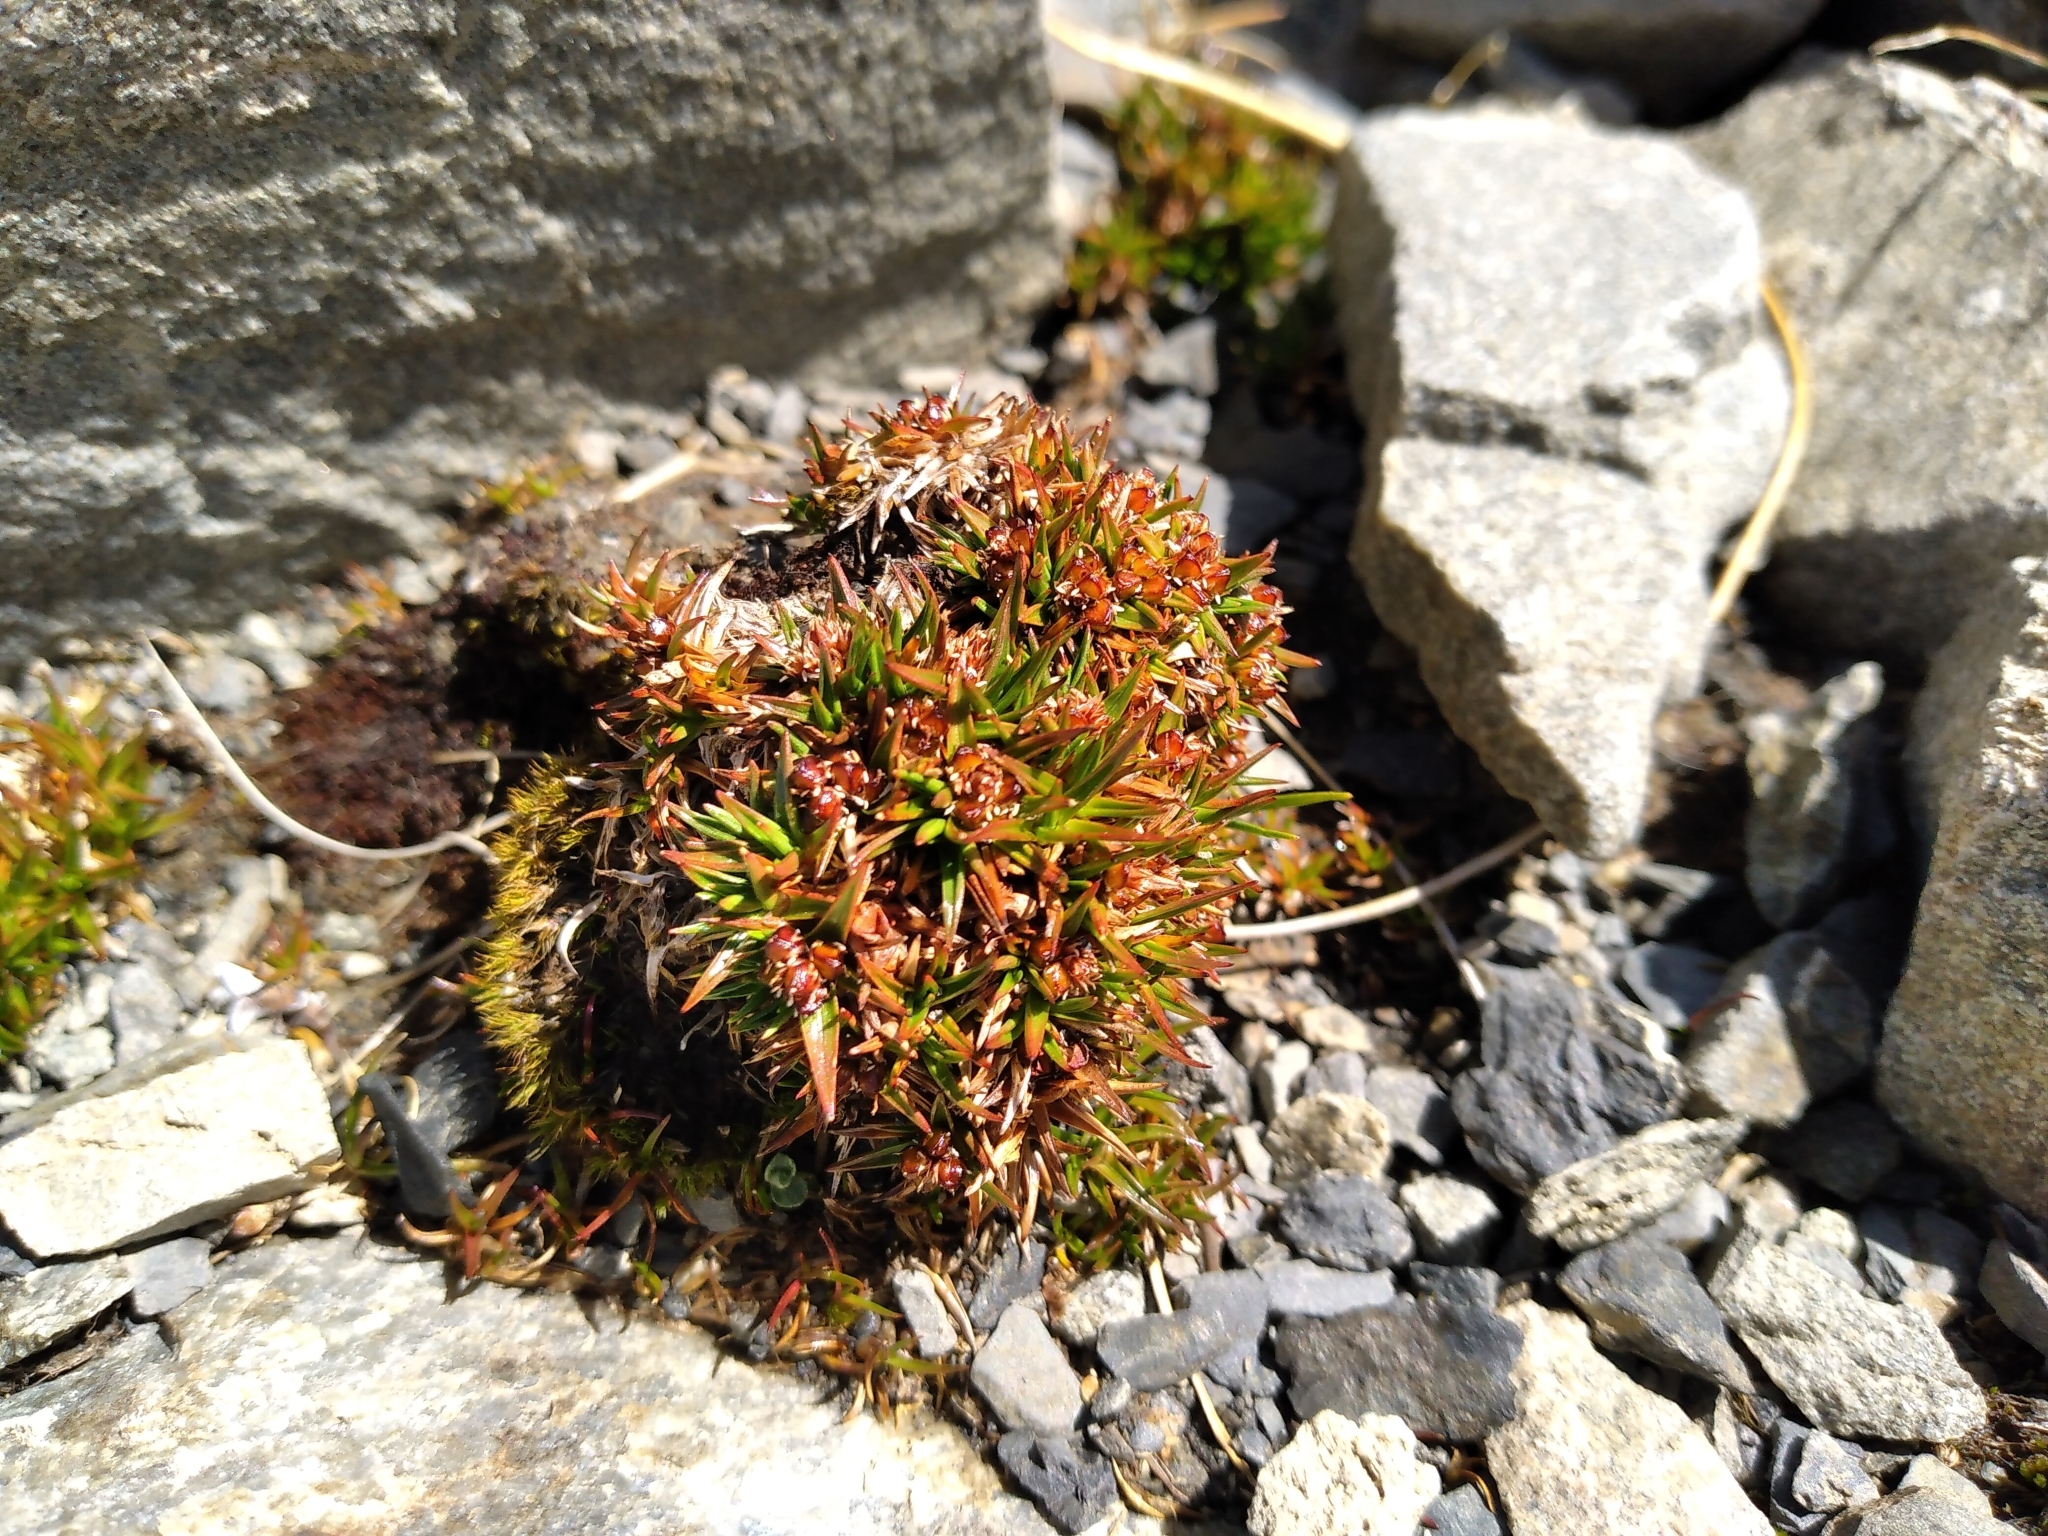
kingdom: Plantae
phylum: Tracheophyta
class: Liliopsida
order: Poales
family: Juncaceae
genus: Luzula
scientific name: Luzula colensoi
